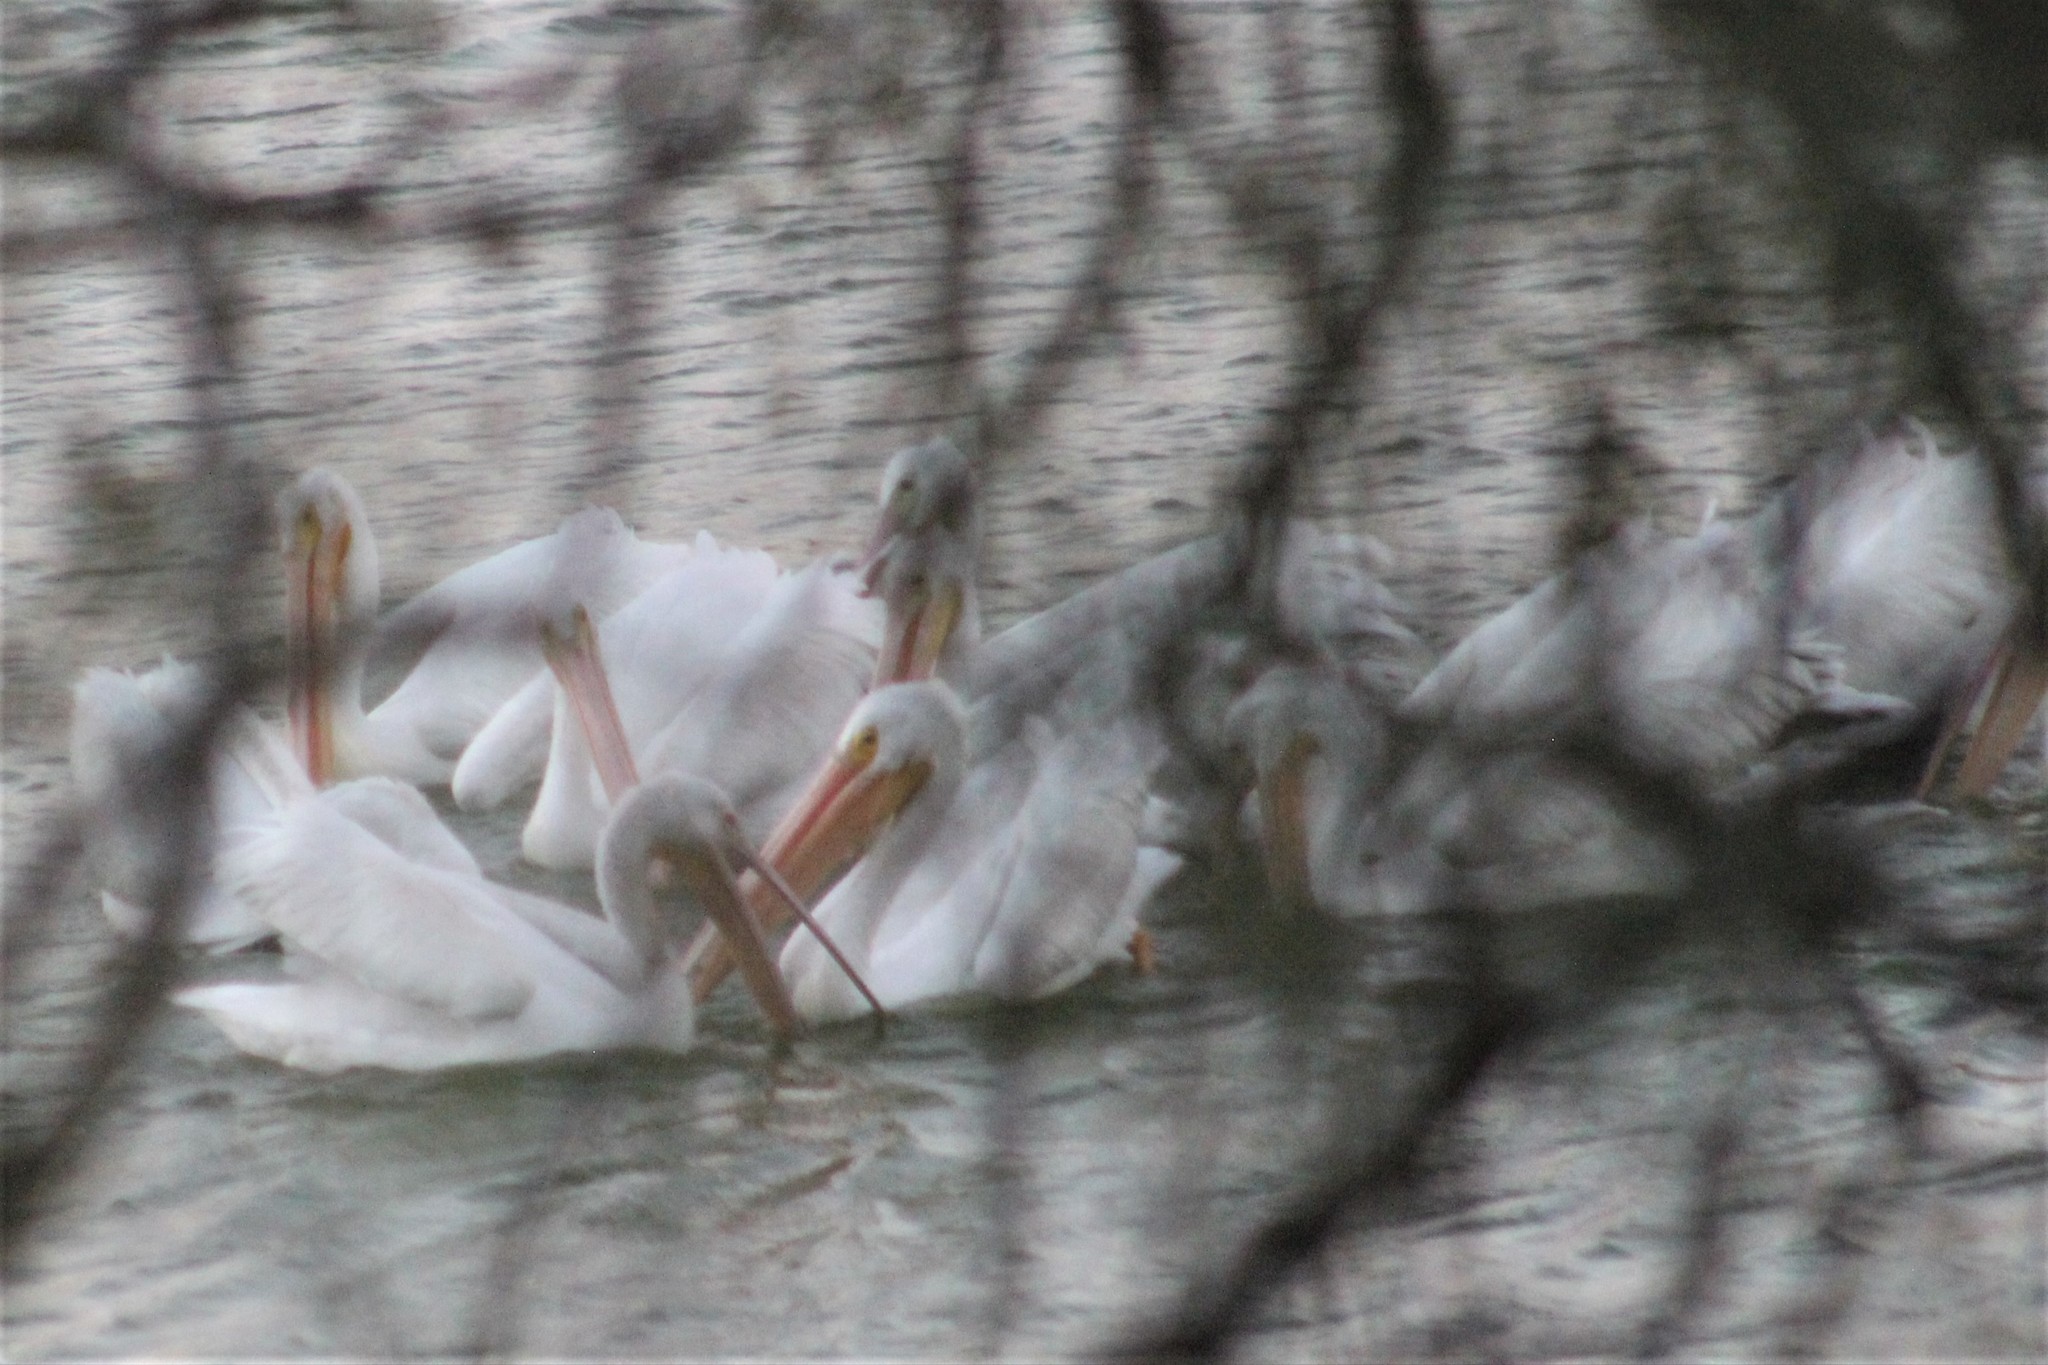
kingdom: Animalia
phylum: Chordata
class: Aves
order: Pelecaniformes
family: Pelecanidae
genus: Pelecanus
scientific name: Pelecanus erythrorhynchos
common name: American white pelican
